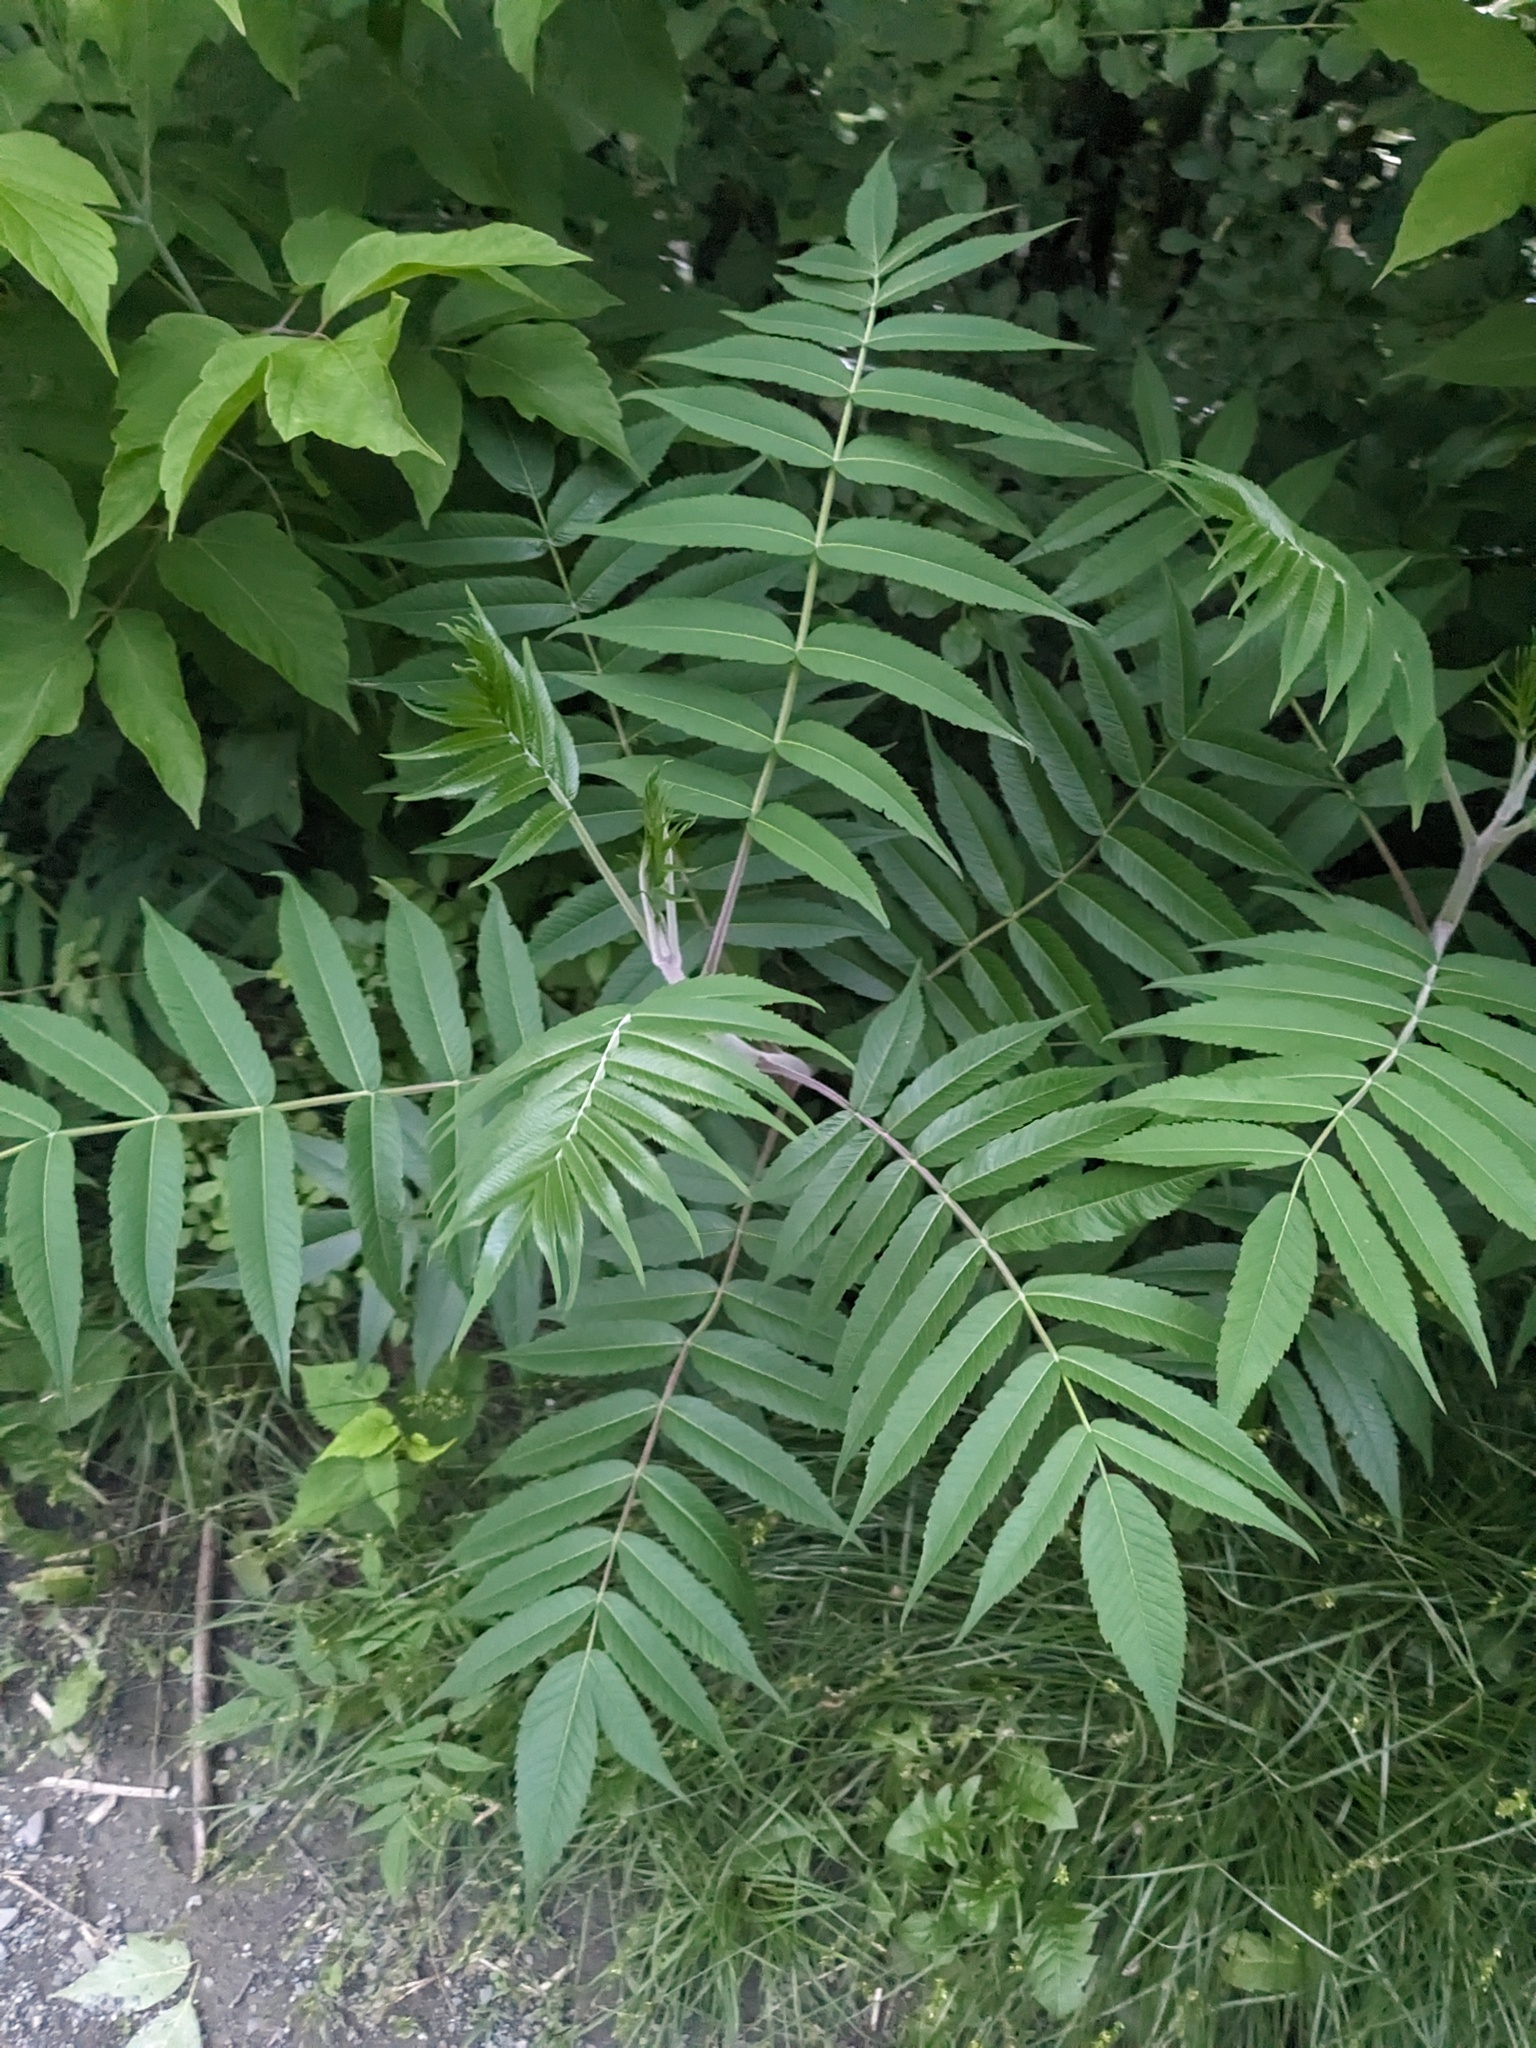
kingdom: Plantae
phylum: Tracheophyta
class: Magnoliopsida
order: Sapindales
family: Anacardiaceae
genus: Rhus
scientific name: Rhus typhina
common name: Staghorn sumac
